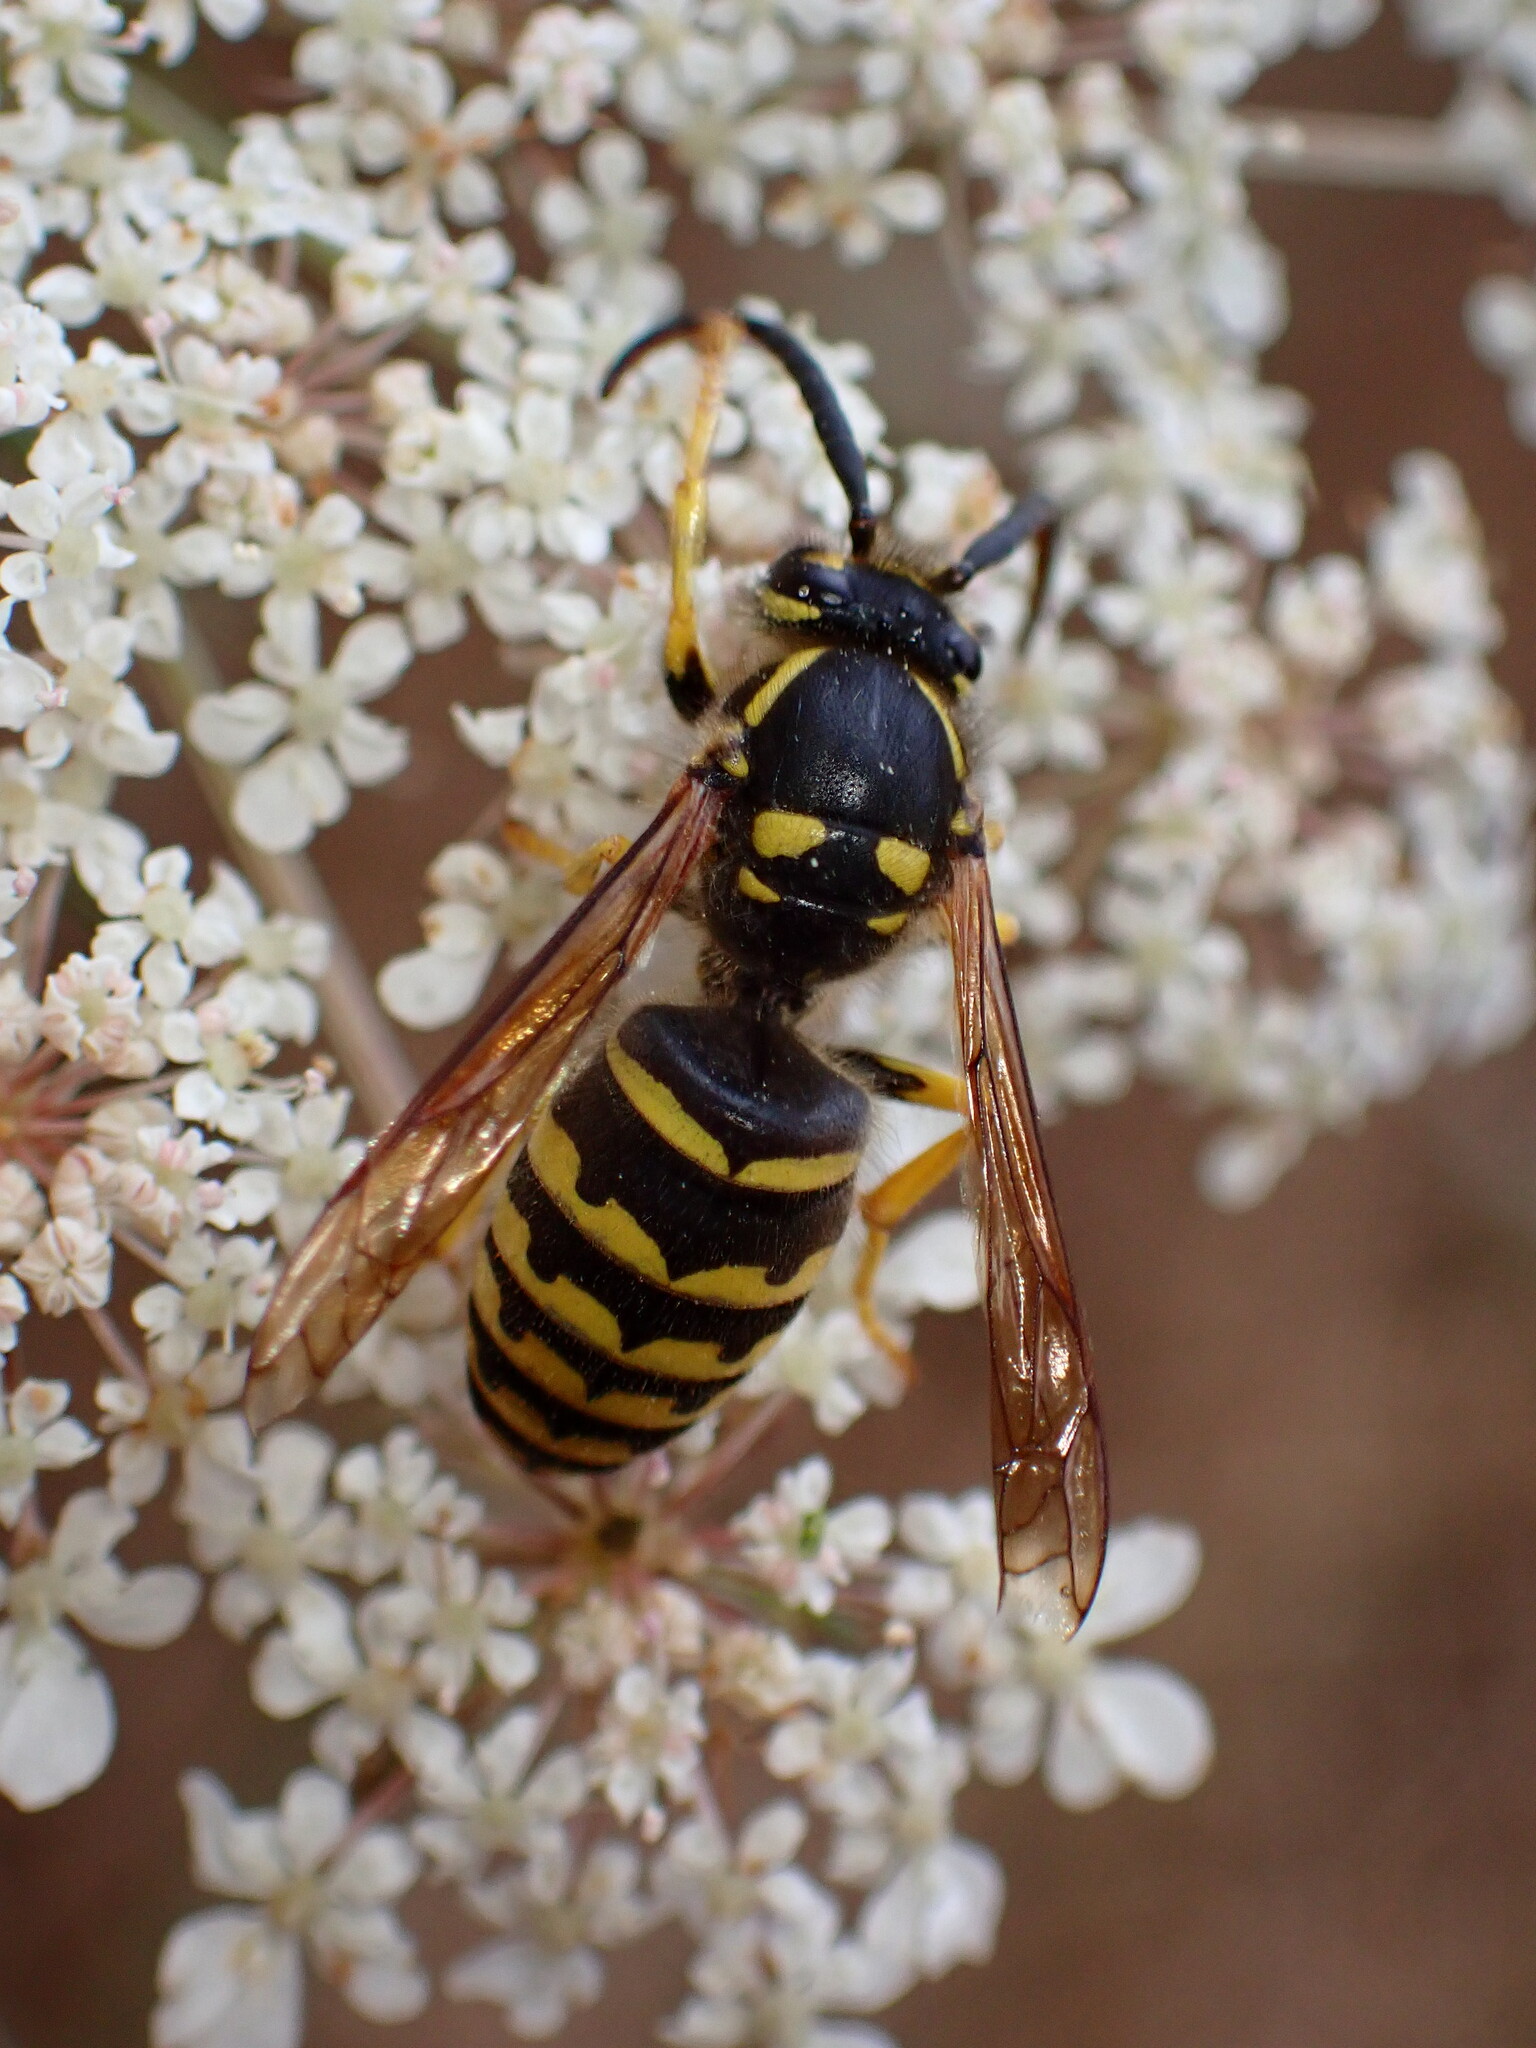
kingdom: Animalia
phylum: Arthropoda
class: Insecta
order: Hymenoptera
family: Vespidae
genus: Dolichovespula
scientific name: Dolichovespula arenaria
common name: Aerial yellowjacket
